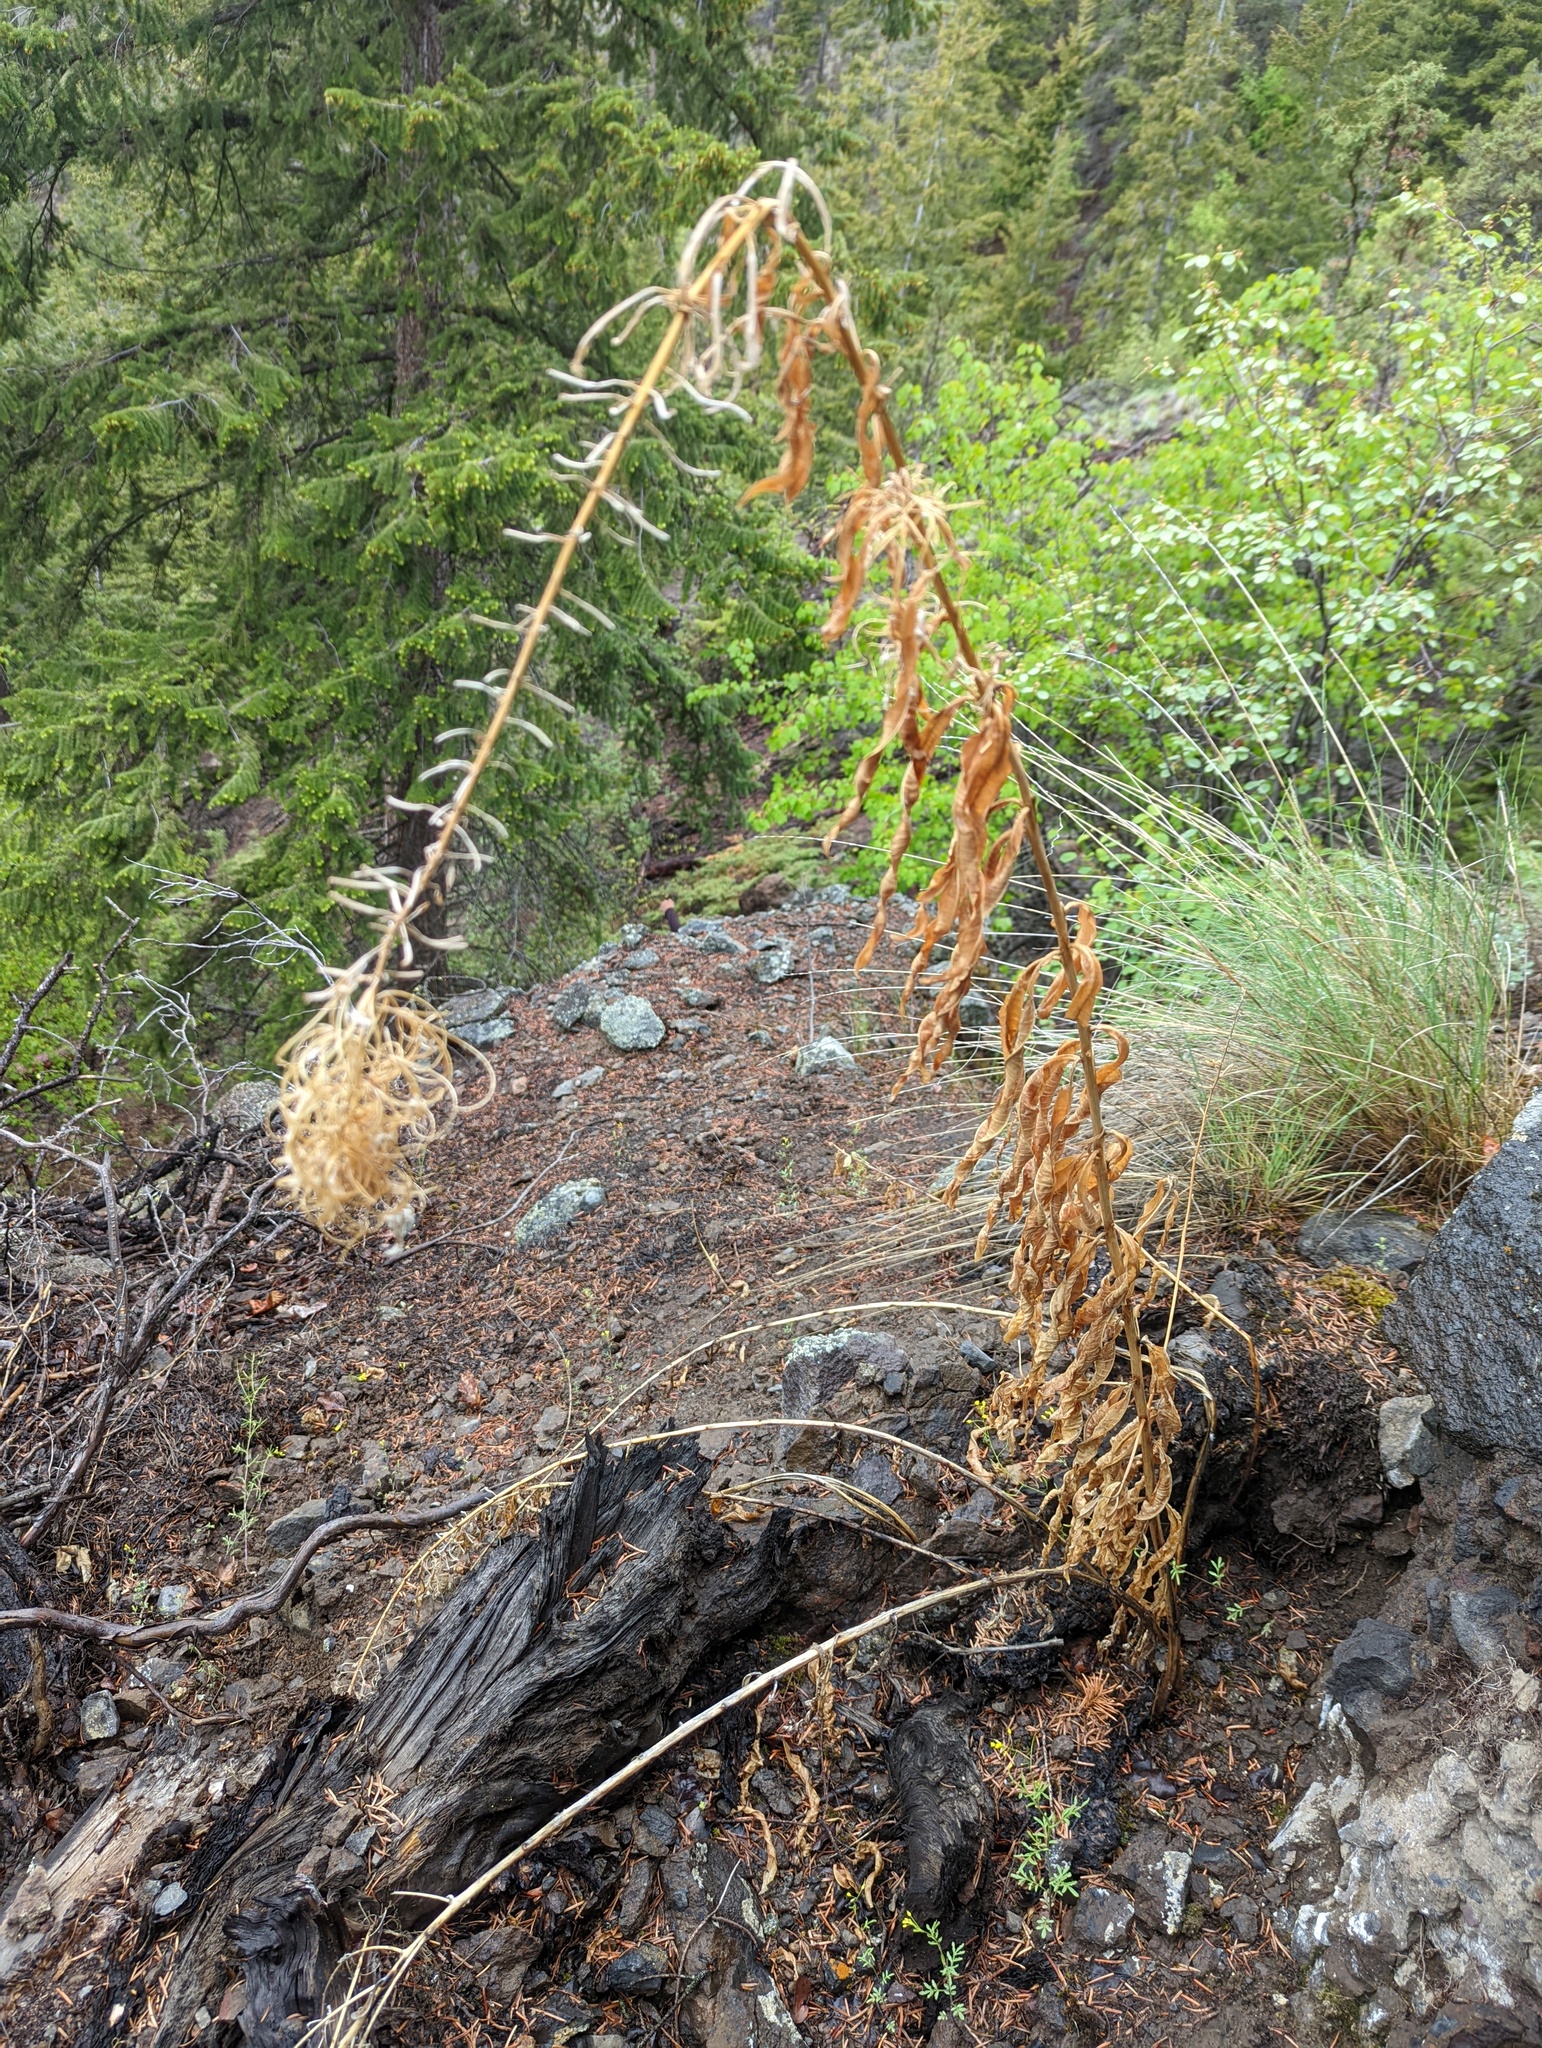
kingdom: Plantae
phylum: Tracheophyta
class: Magnoliopsida
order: Myrtales
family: Onagraceae
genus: Chamaenerion
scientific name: Chamaenerion angustifolium
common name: Fireweed
